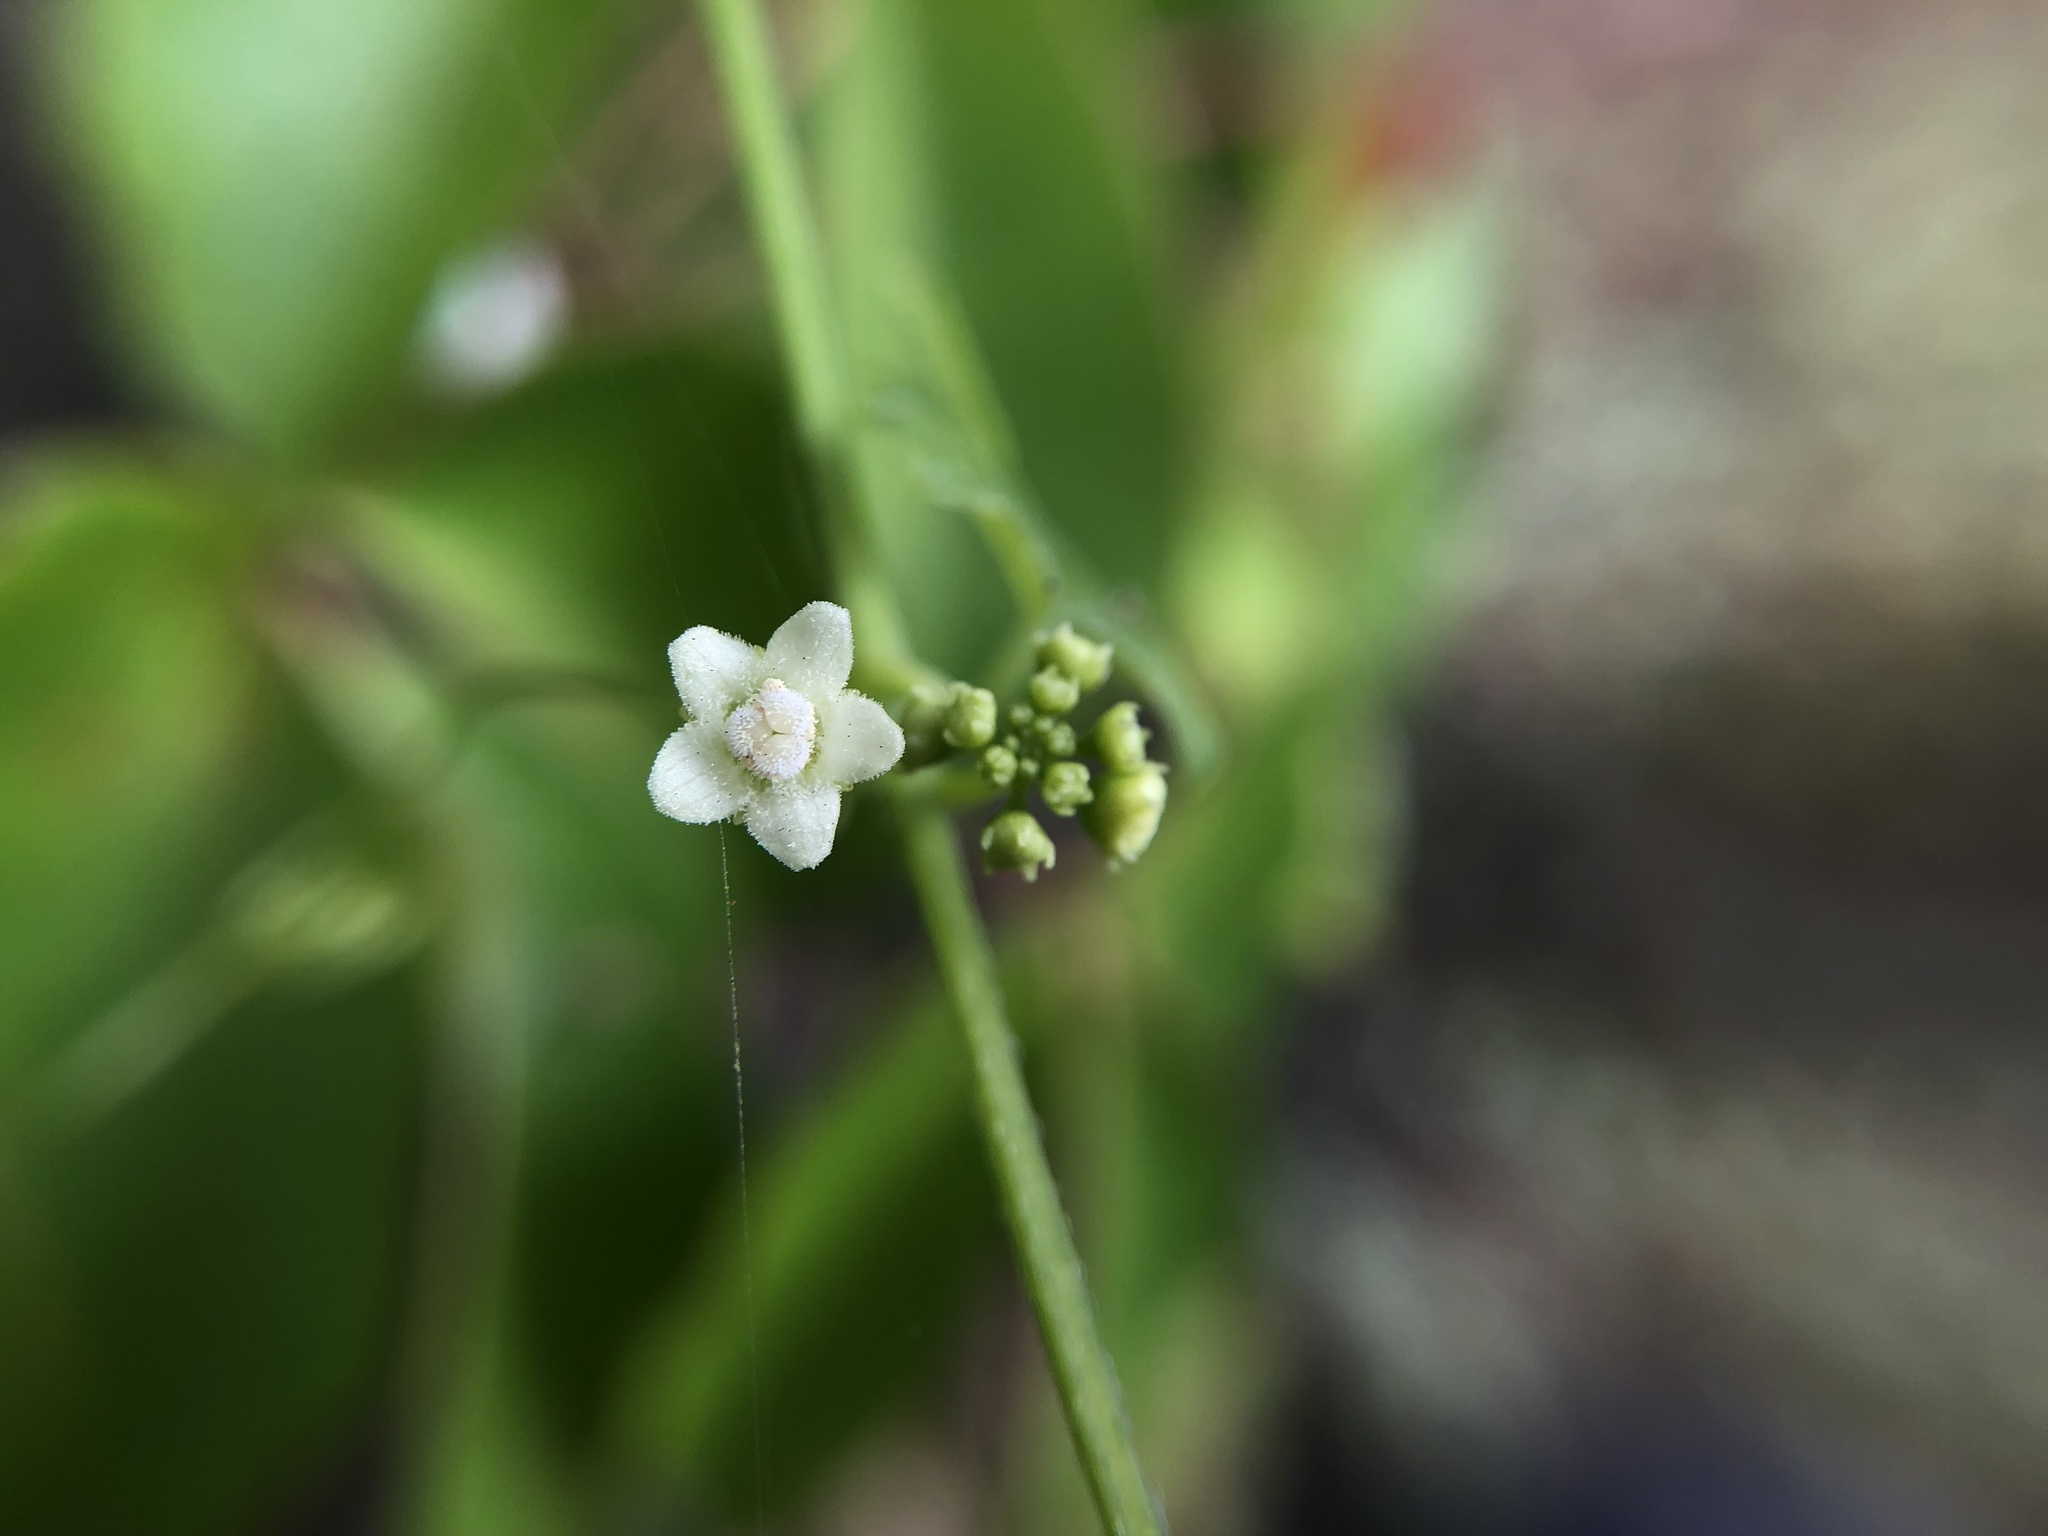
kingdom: Plantae
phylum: Tracheophyta
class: Magnoliopsida
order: Cucurbitales
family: Cucurbitaceae
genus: Zehneria
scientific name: Zehneria mucronata
